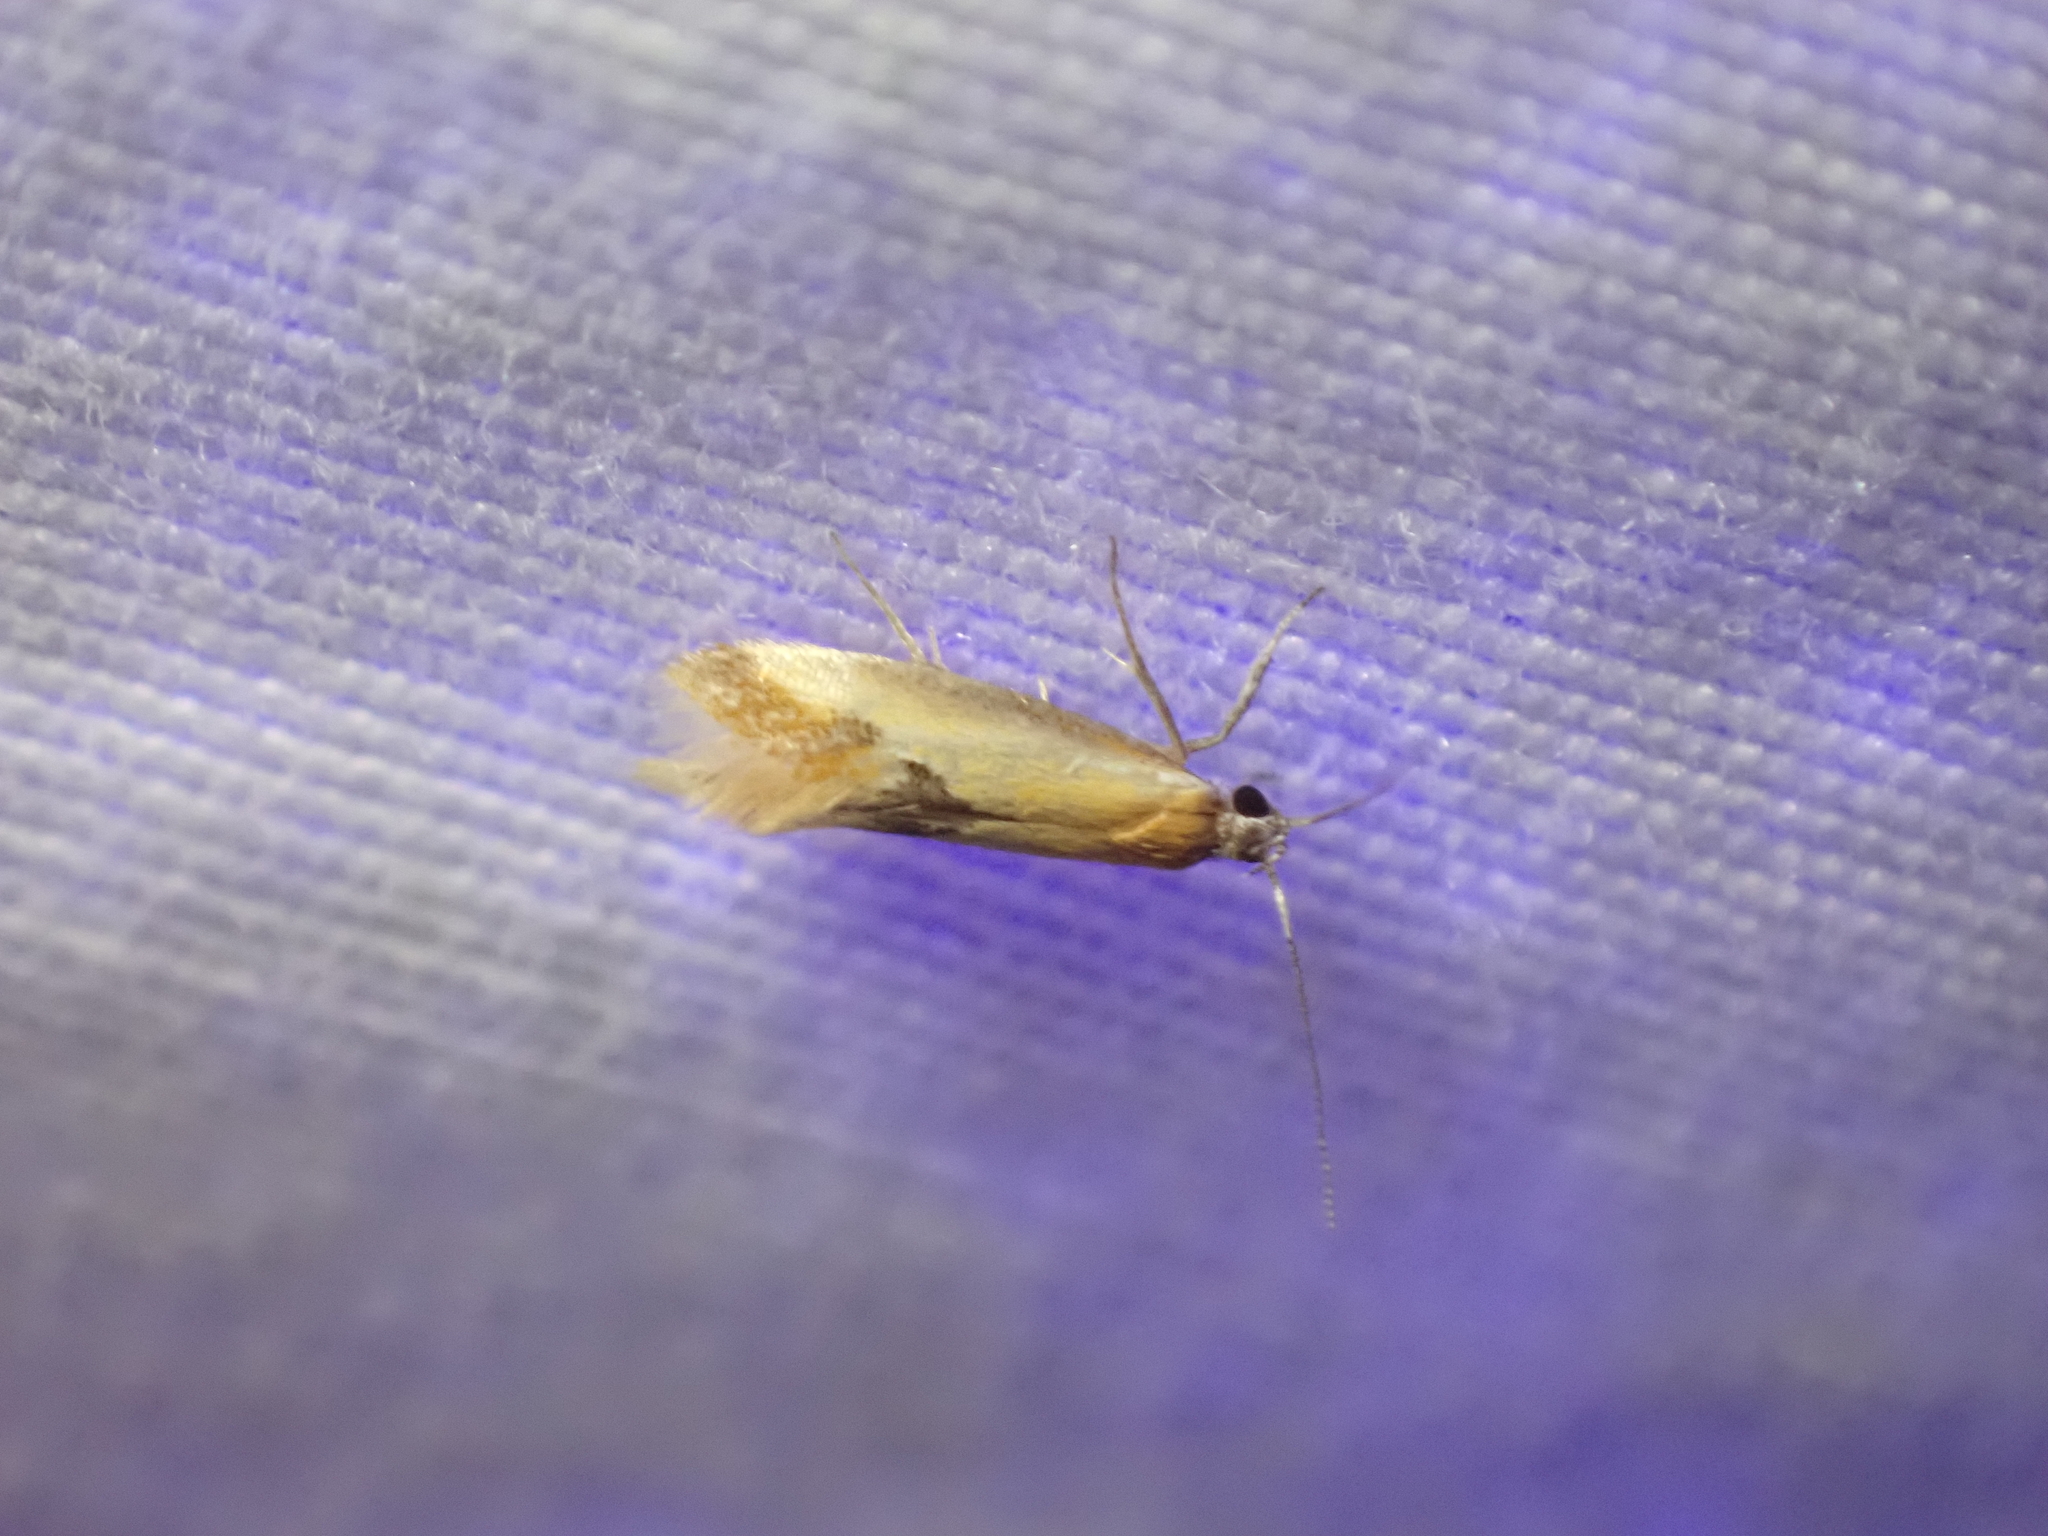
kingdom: Animalia
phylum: Arthropoda
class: Insecta
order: Lepidoptera
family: Oecophoridae
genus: Batia
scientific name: Batia lunaris
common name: Moth
